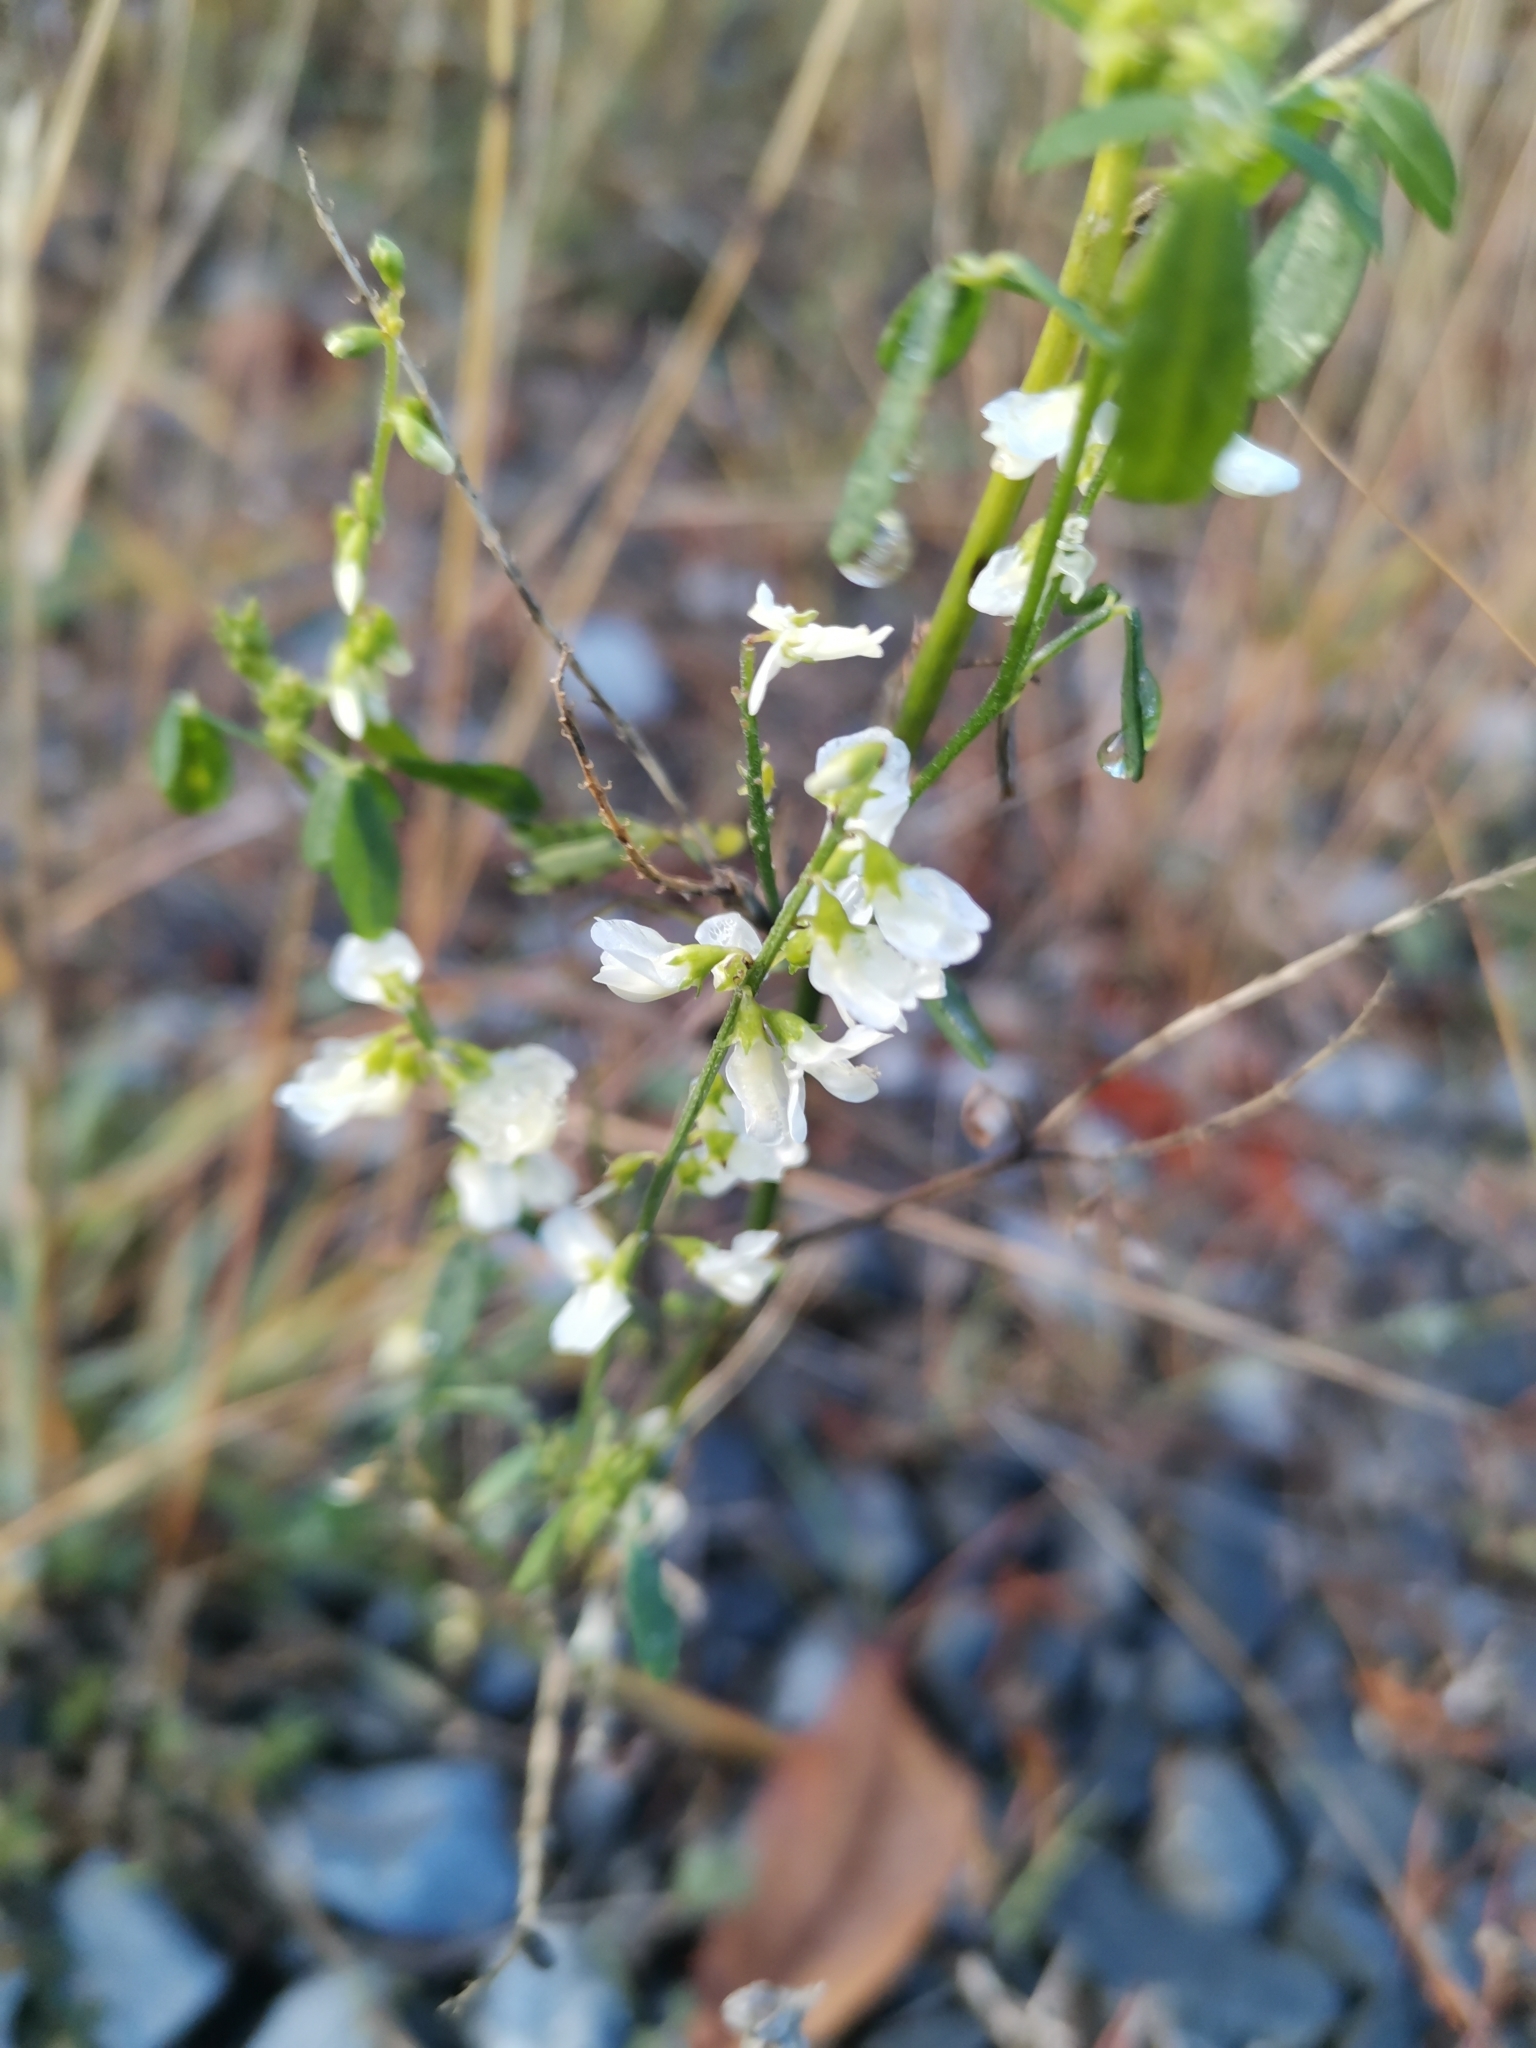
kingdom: Plantae
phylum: Tracheophyta
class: Magnoliopsida
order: Fabales
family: Fabaceae
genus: Melilotus
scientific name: Melilotus albus
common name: White melilot
